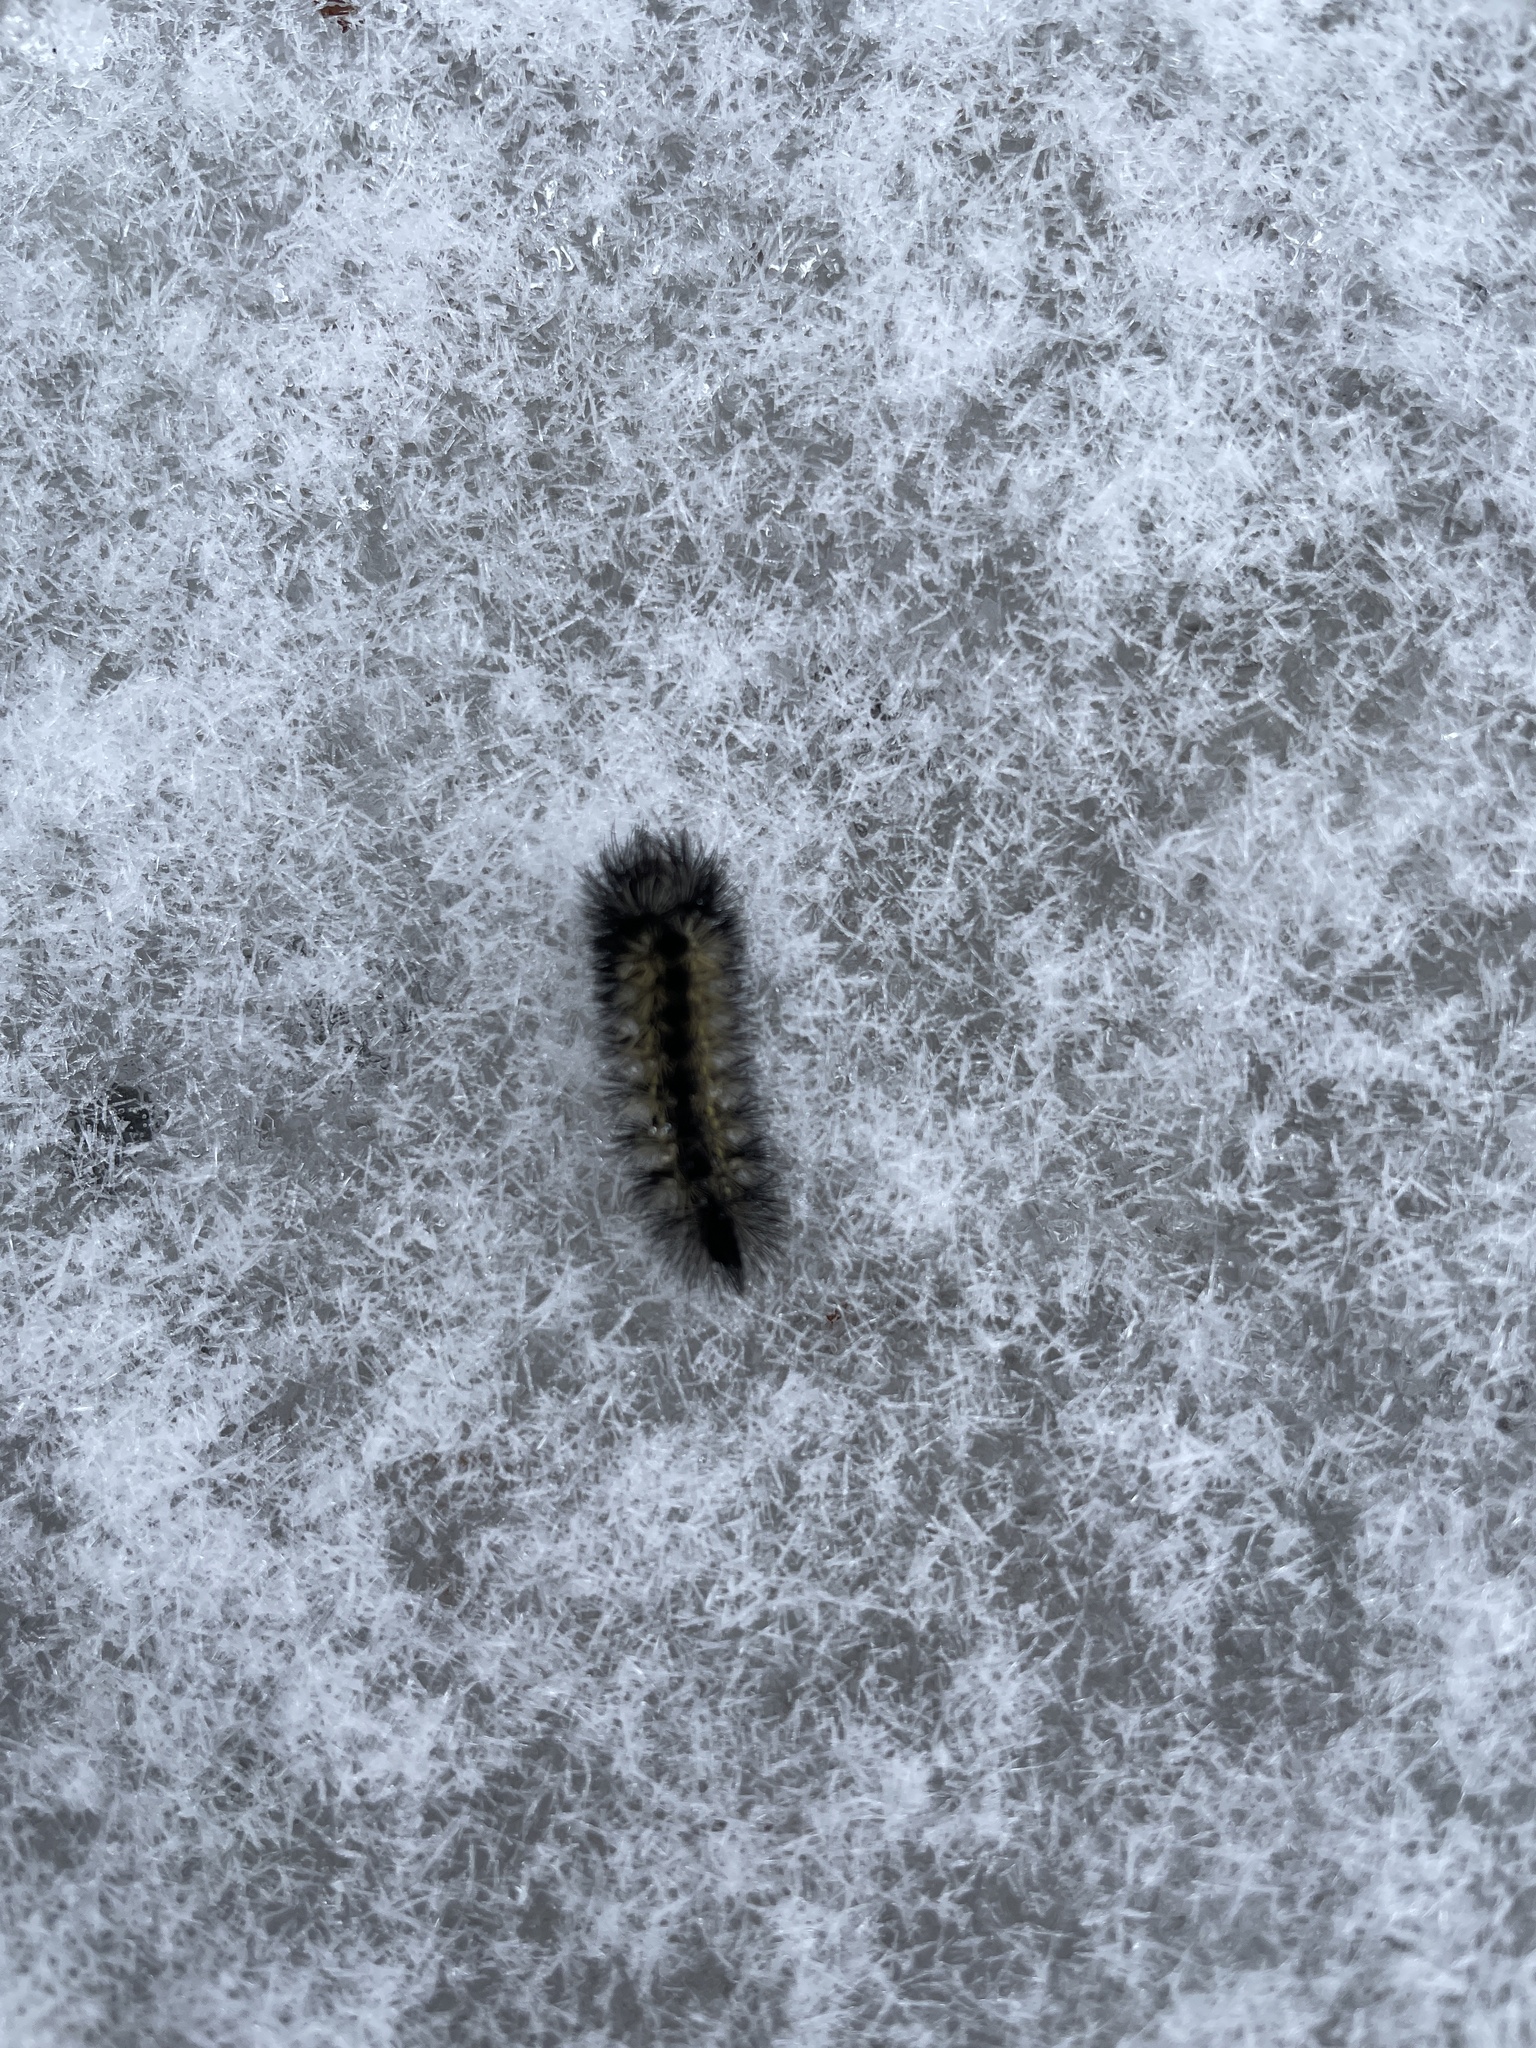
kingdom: Animalia
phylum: Arthropoda
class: Insecta
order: Lepidoptera
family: Erebidae
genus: Ctenucha
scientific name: Ctenucha virginica
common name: Virginia ctenucha moth
